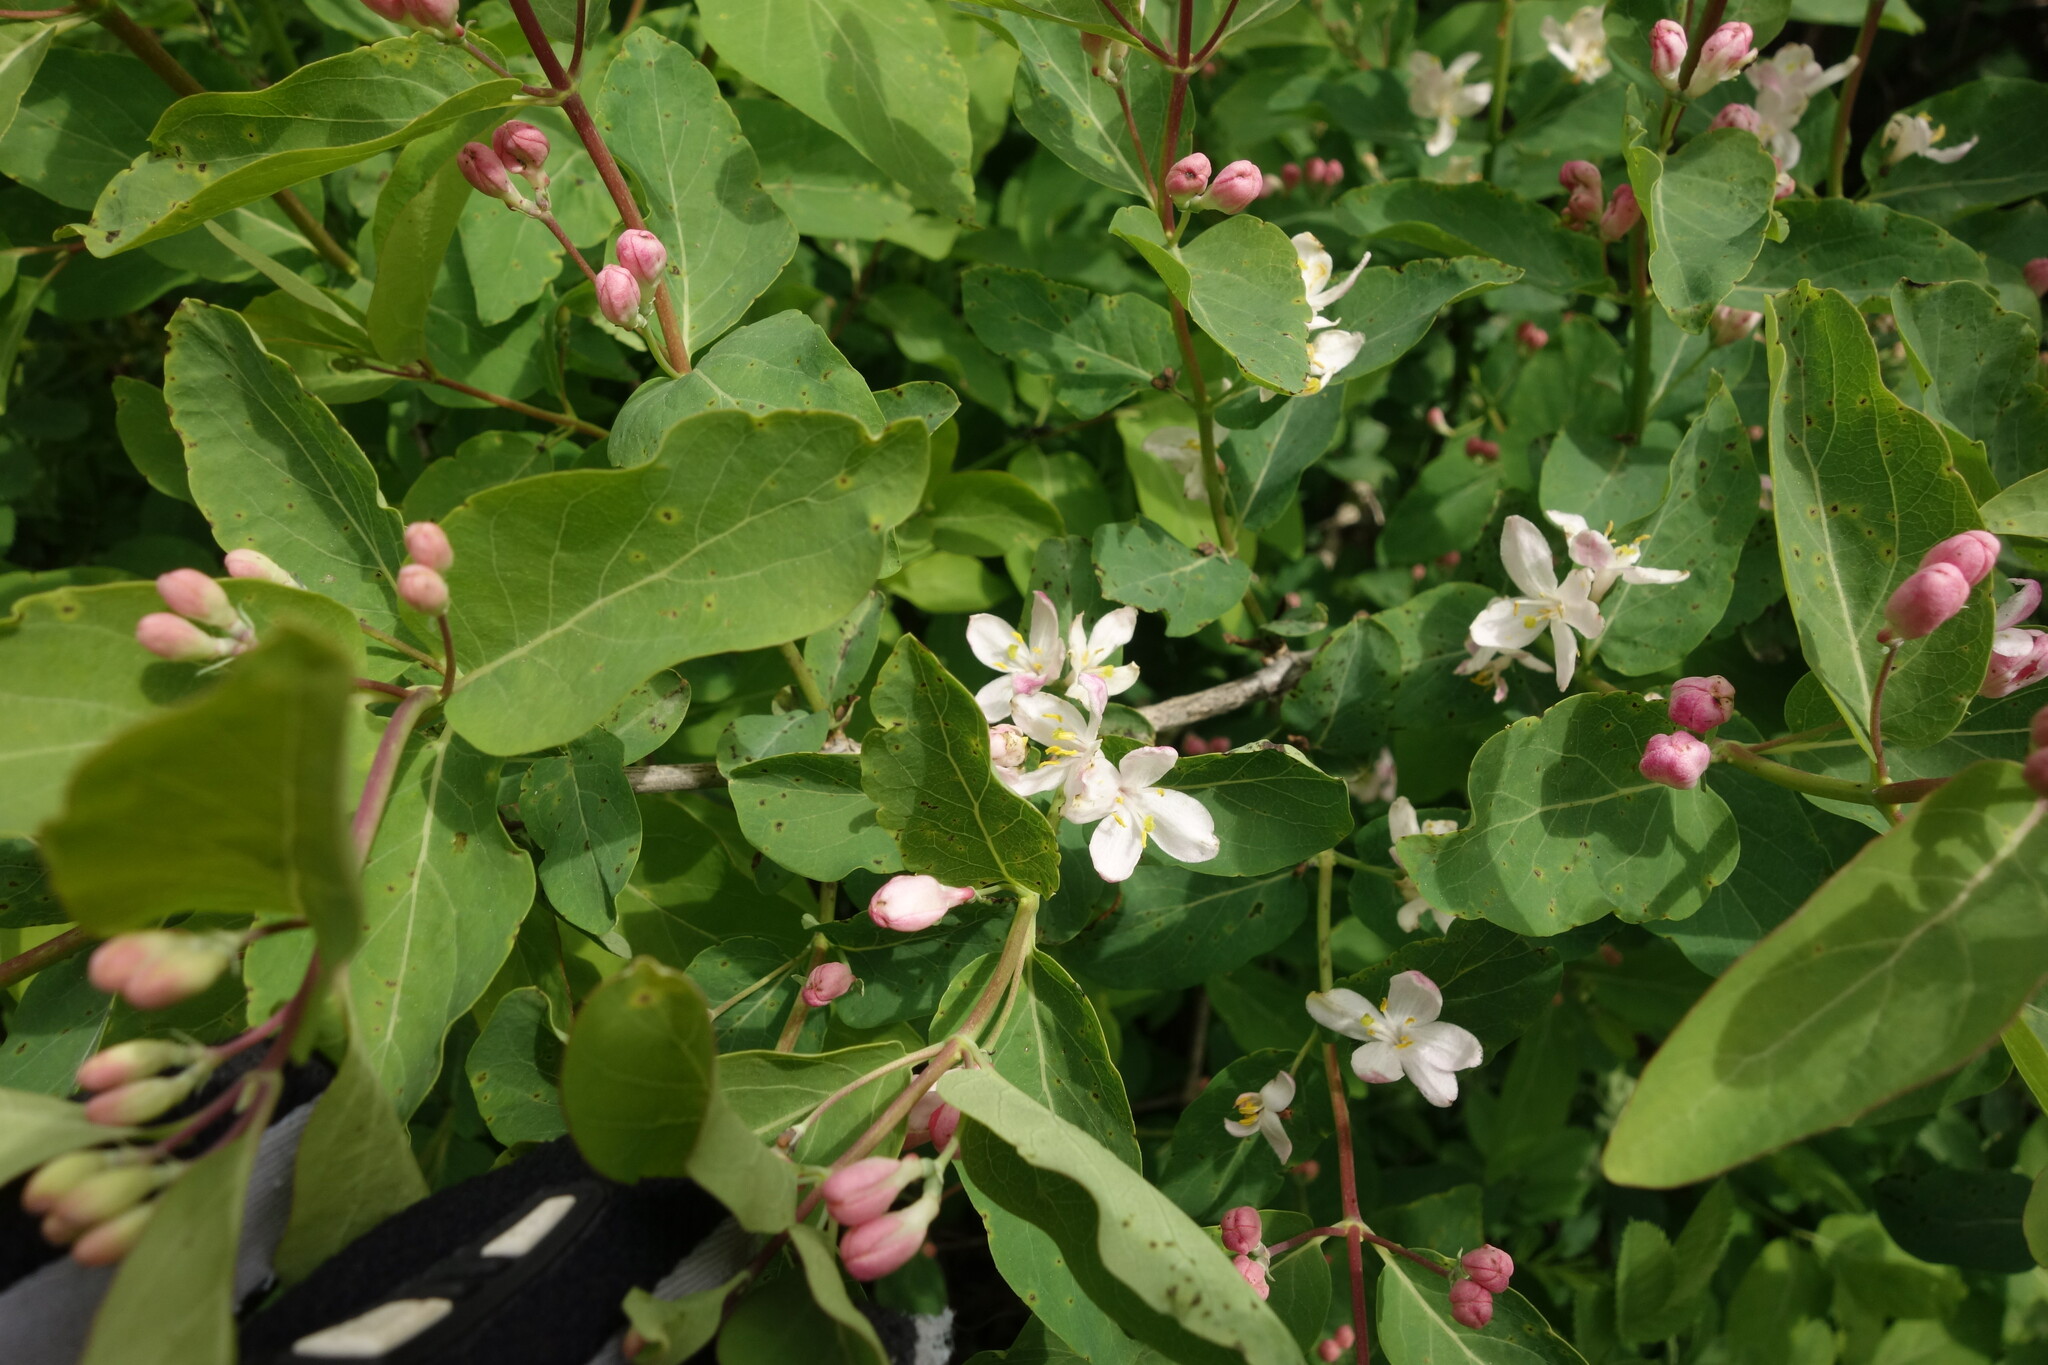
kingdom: Plantae
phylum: Tracheophyta
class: Magnoliopsida
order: Dipsacales
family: Caprifoliaceae
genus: Lonicera
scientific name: Lonicera tatarica
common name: Tatarian honeysuckle
